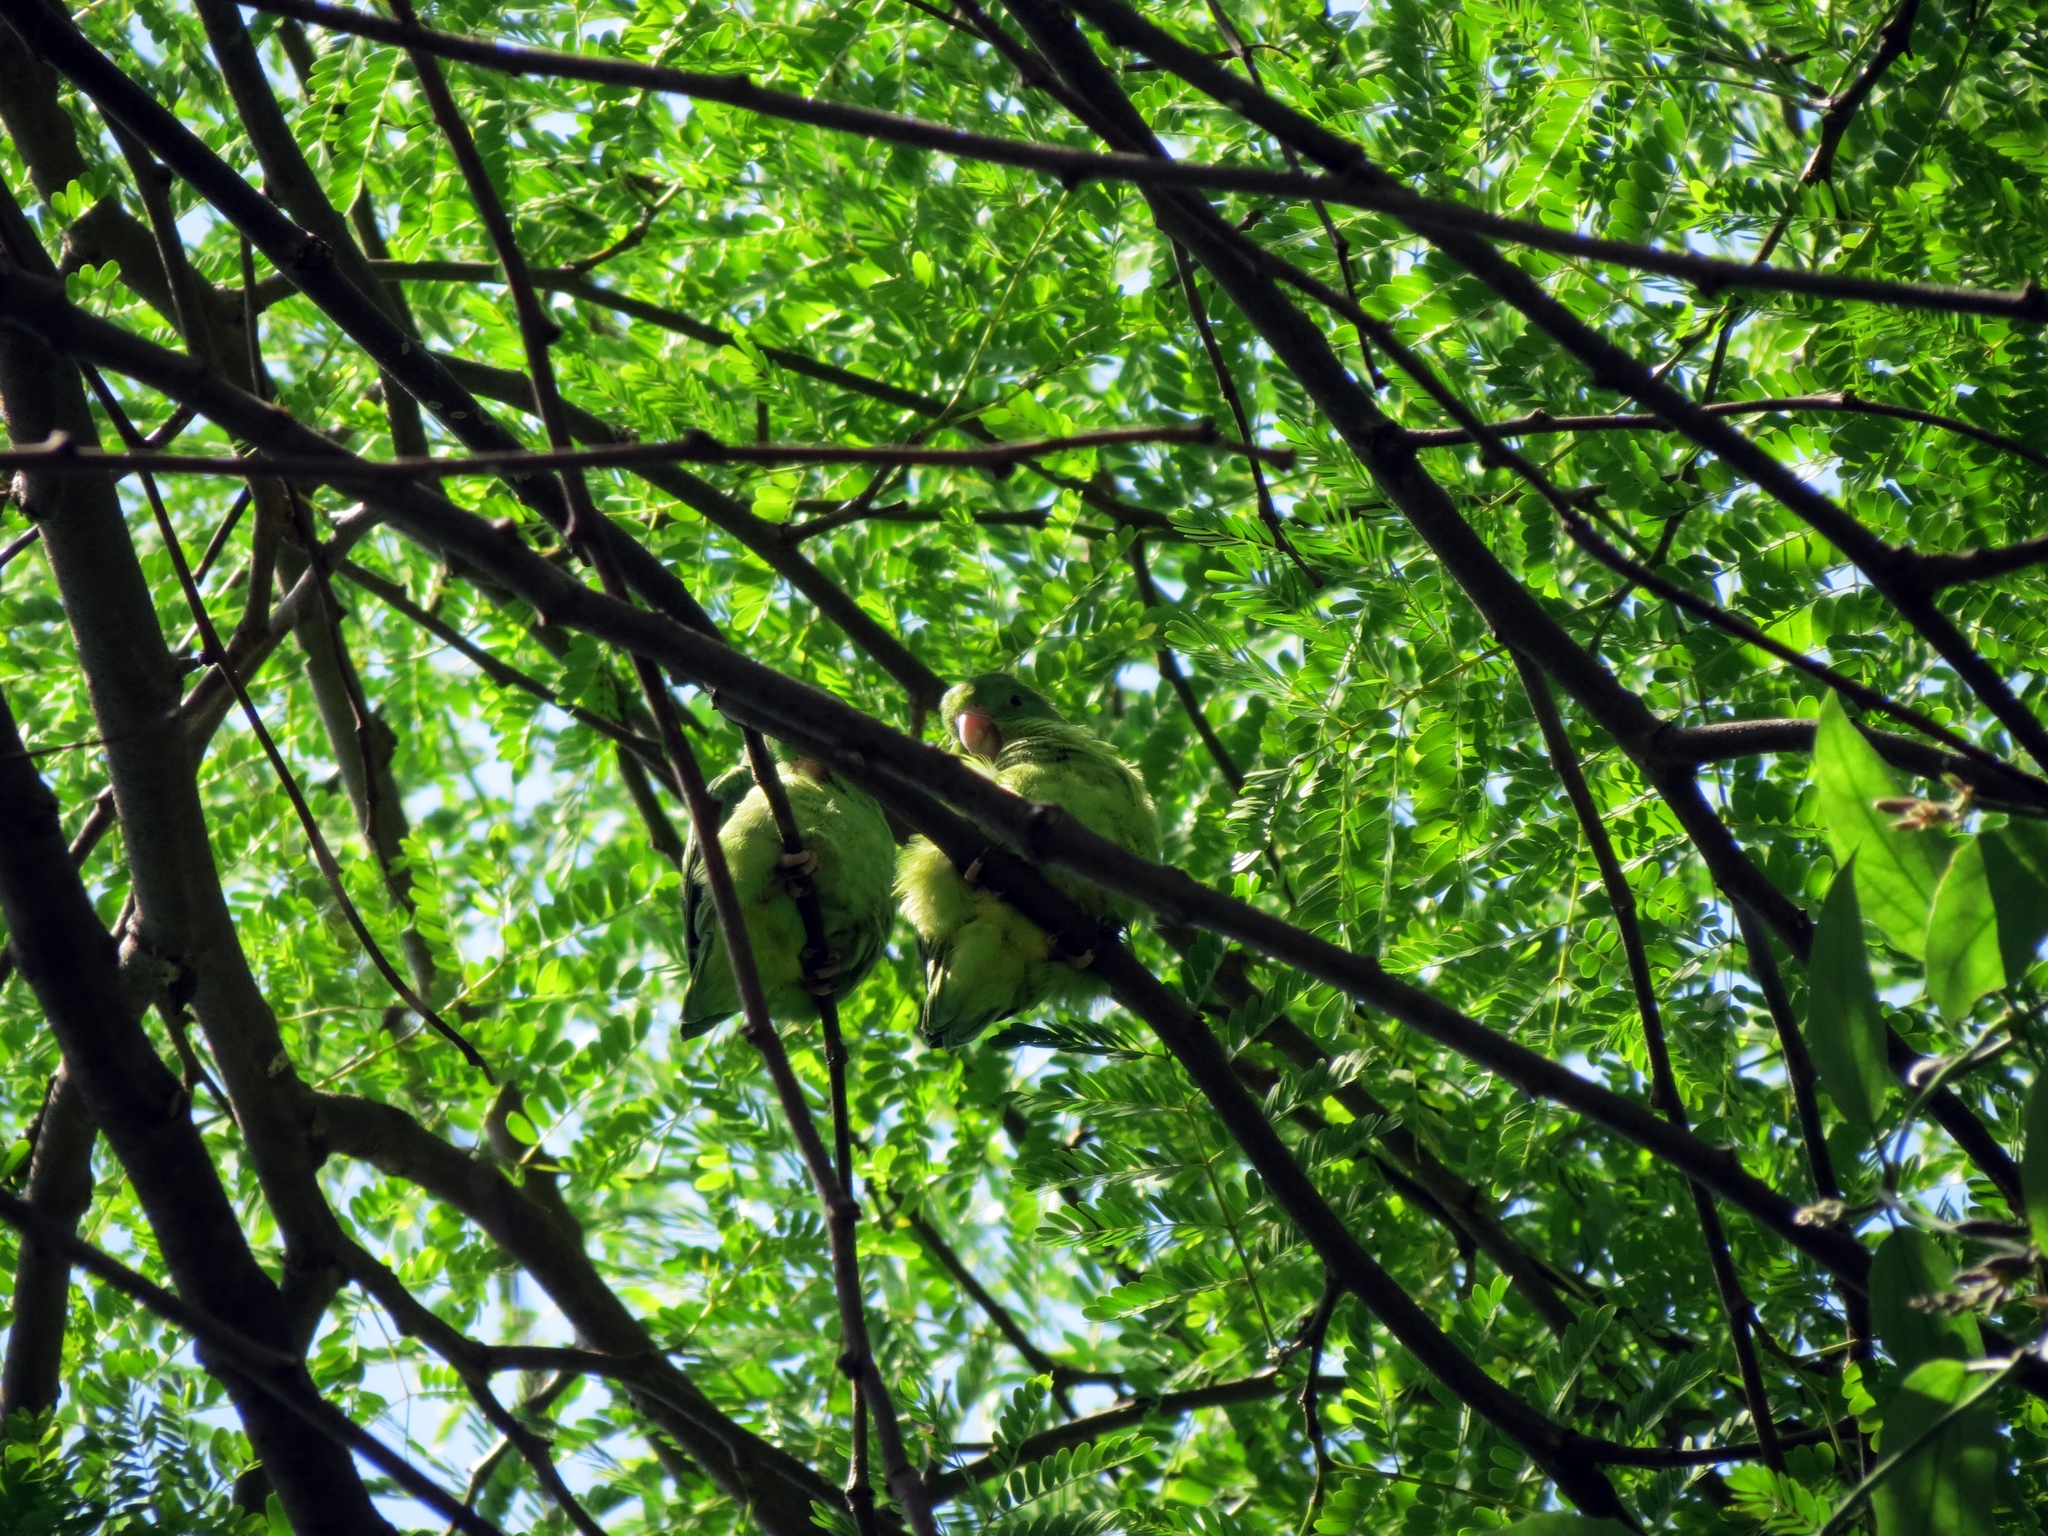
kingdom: Animalia
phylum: Chordata
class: Aves
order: Psittaciformes
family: Psittacidae
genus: Brotogeris
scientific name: Brotogeris jugularis
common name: Orange-chinned parakeet
